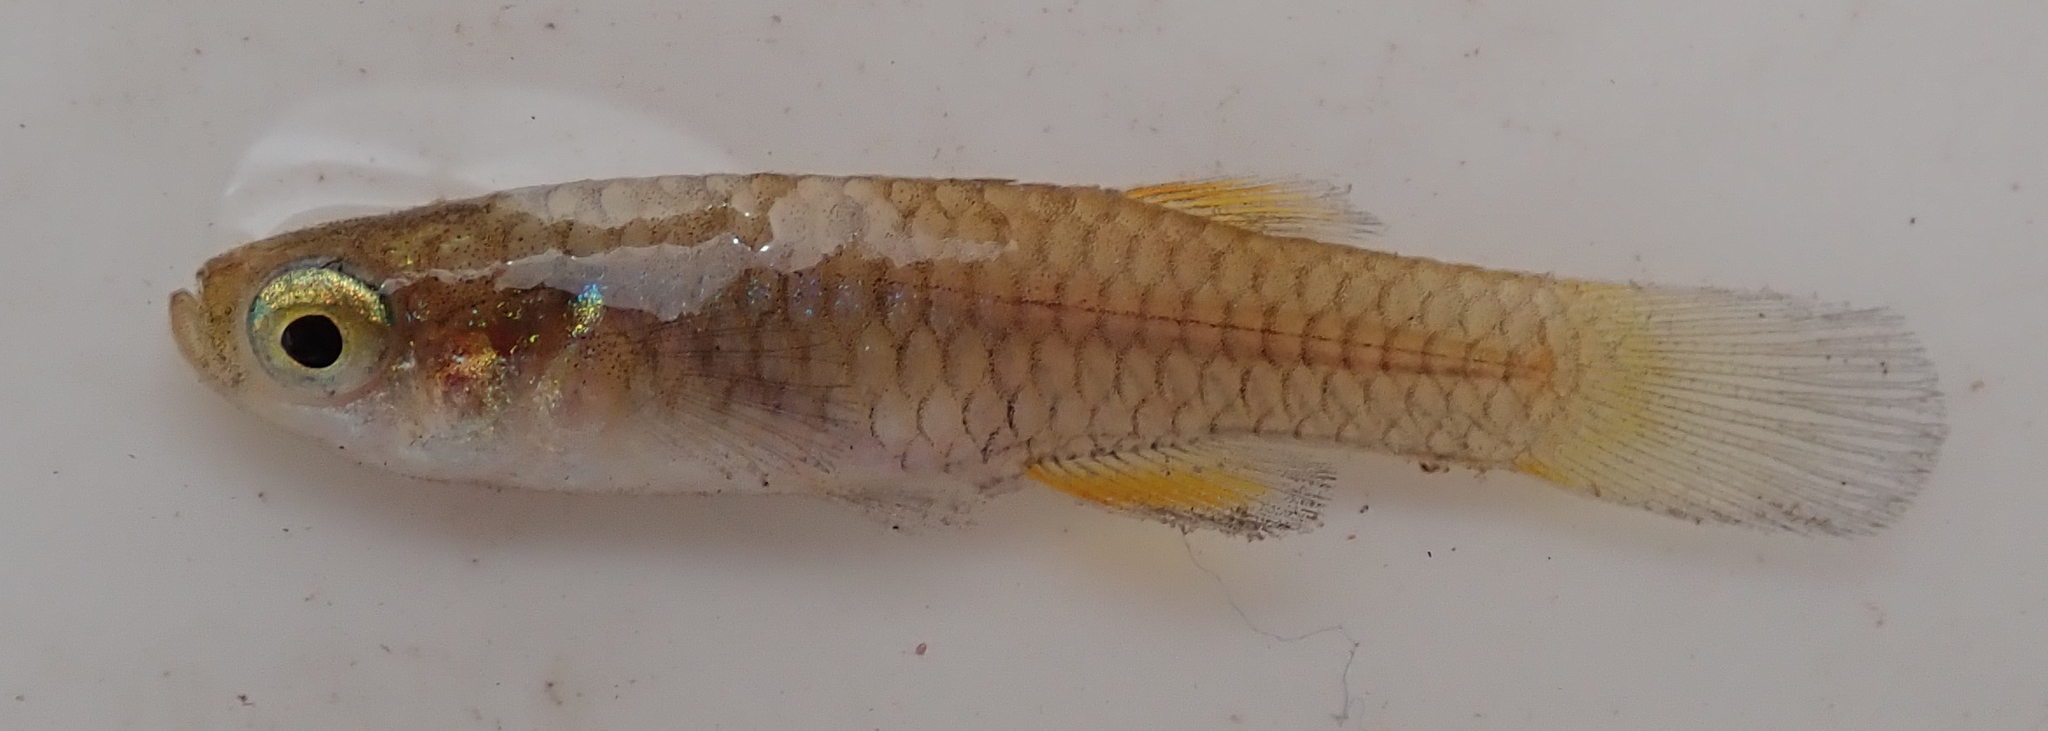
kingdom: Animalia
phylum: Chordata
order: Cyprinodontiformes
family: Poeciliidae
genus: Micropanchax
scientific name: Micropanchax hutereaui
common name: Meshscaled topminnow
